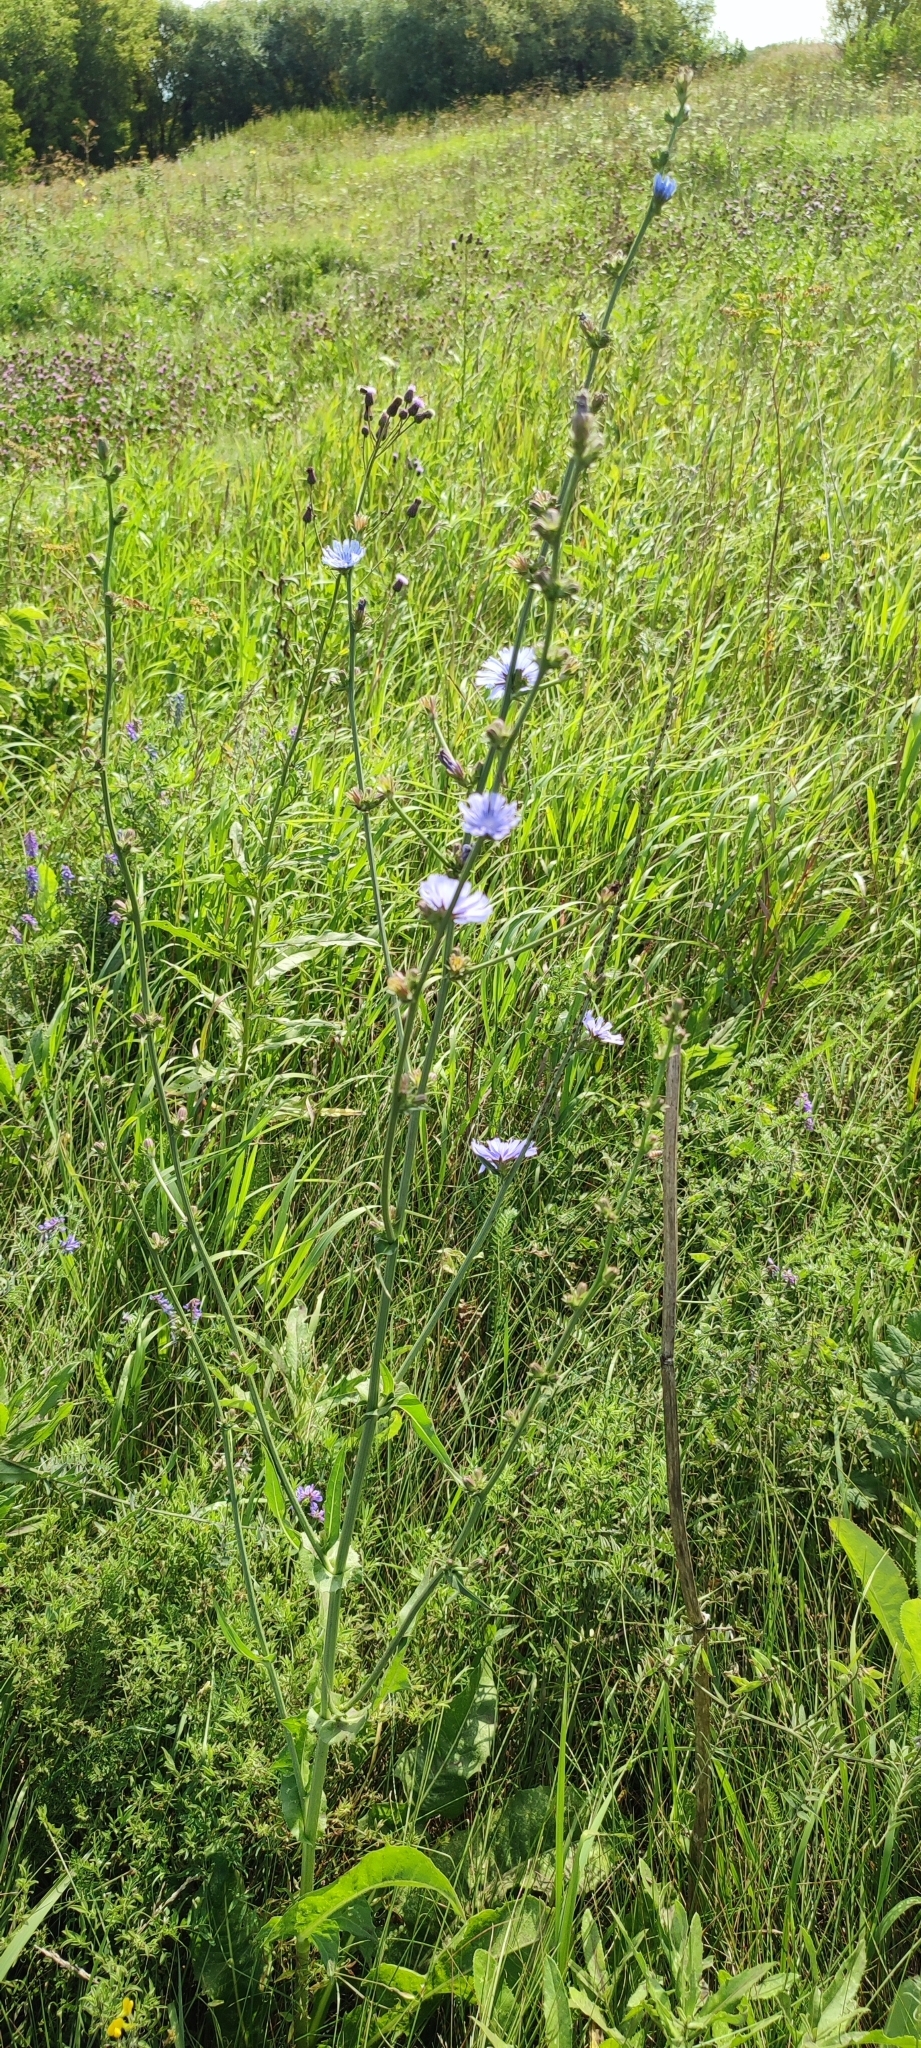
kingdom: Plantae
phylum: Tracheophyta
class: Magnoliopsida
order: Asterales
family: Asteraceae
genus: Cichorium
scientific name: Cichorium intybus
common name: Chicory
